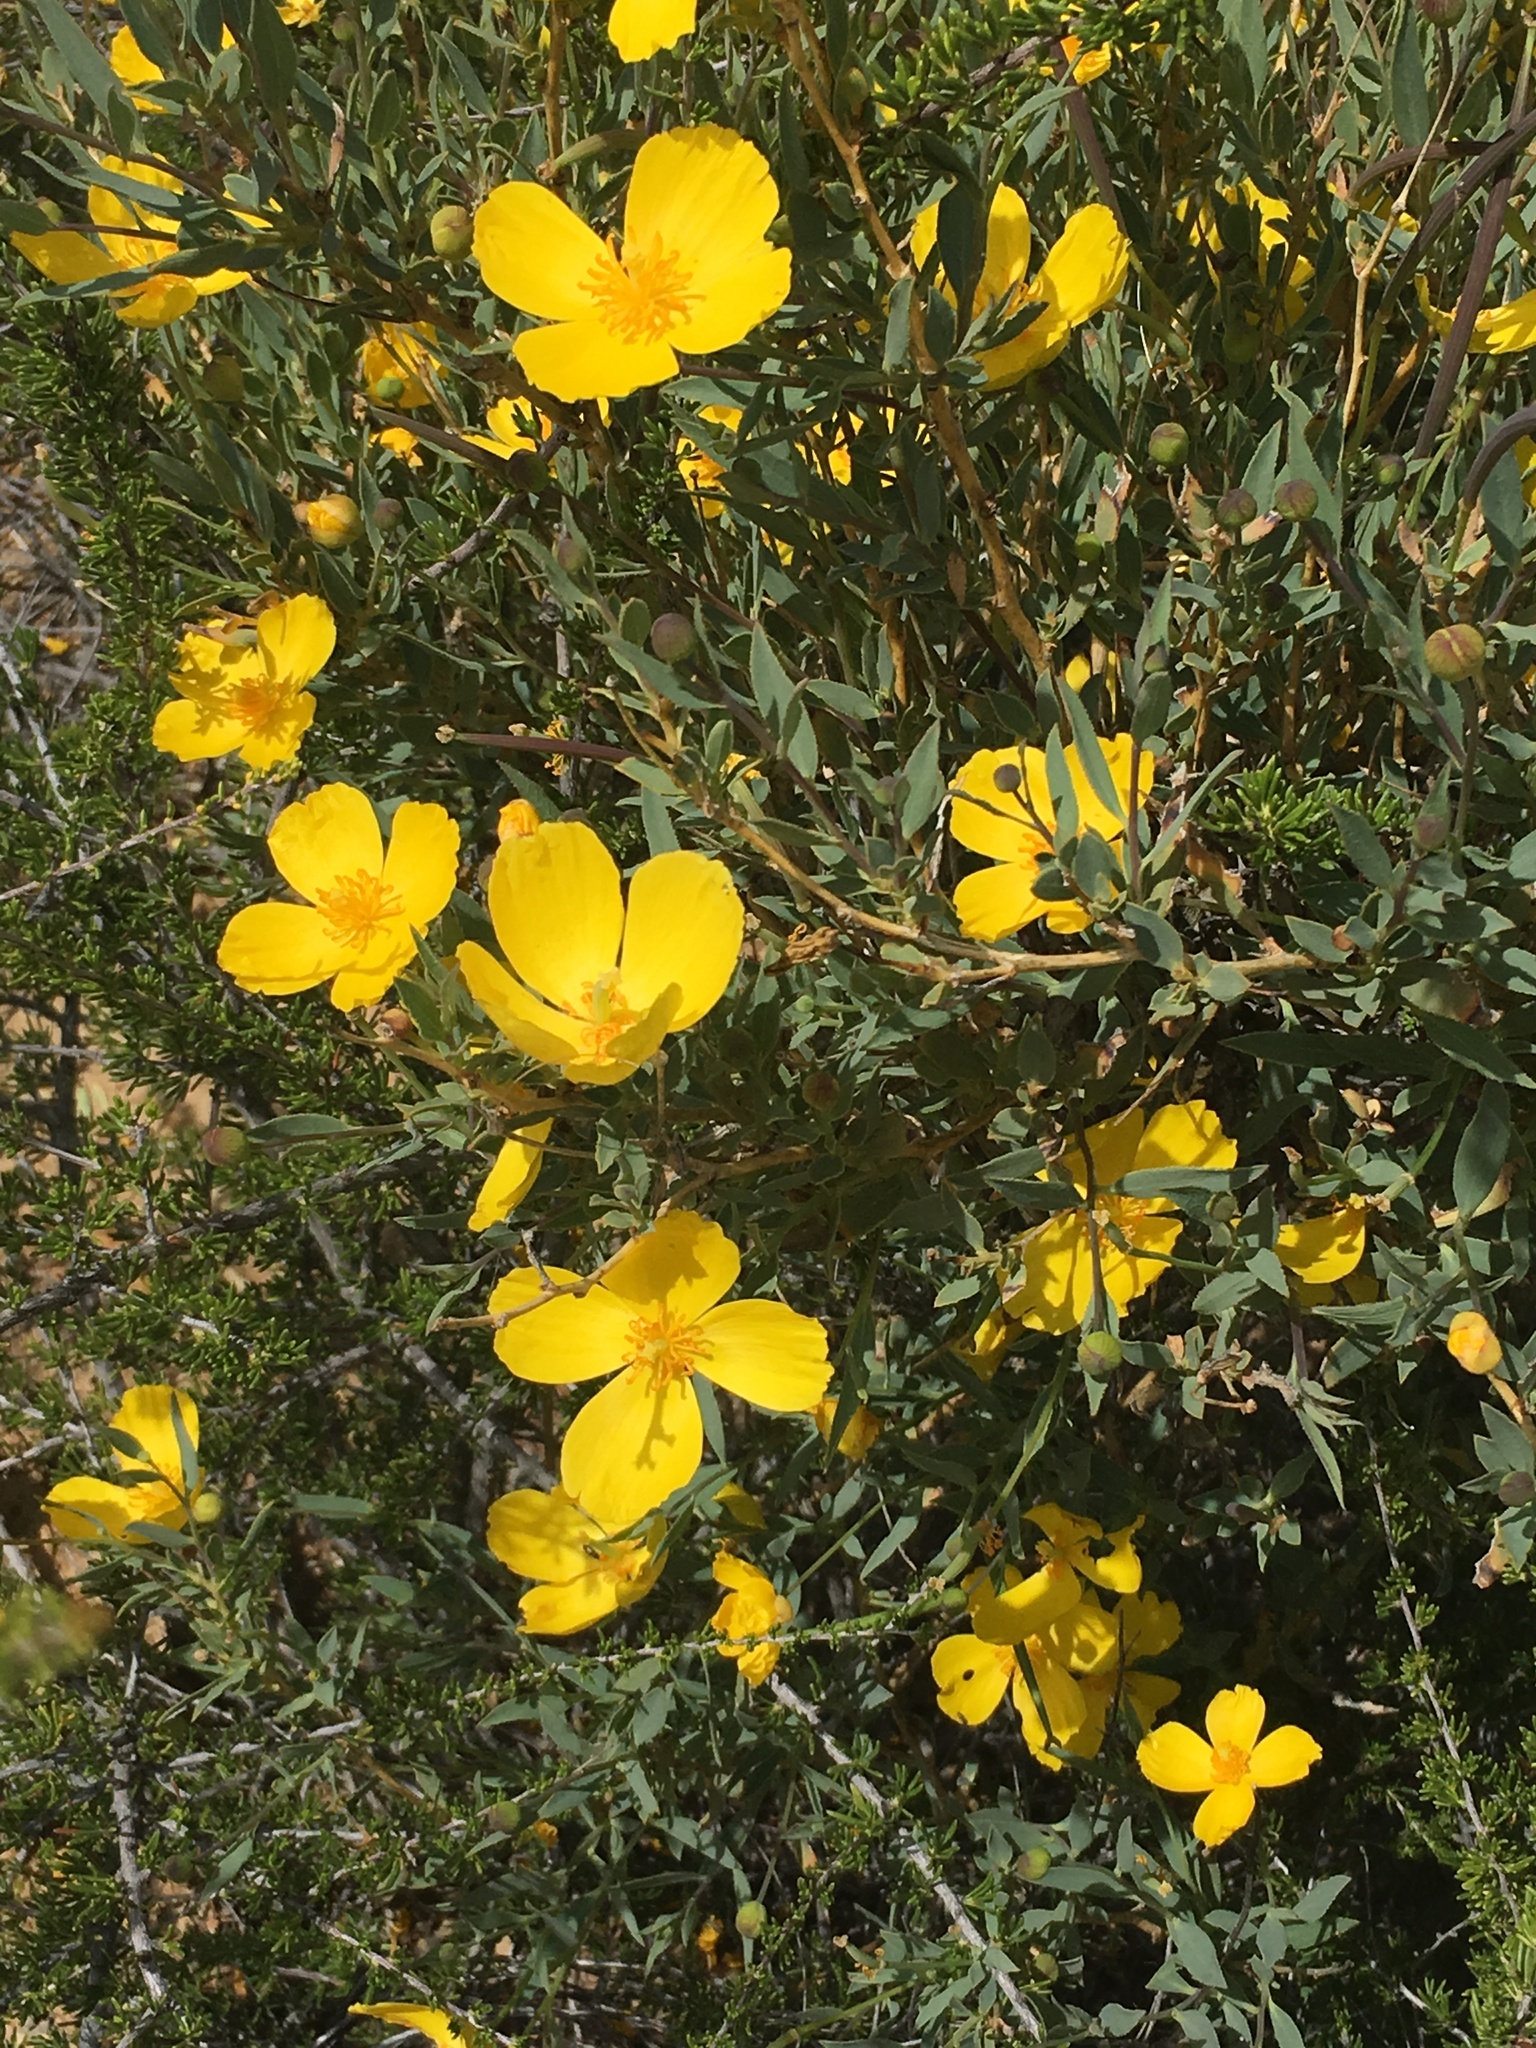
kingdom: Plantae
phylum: Tracheophyta
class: Magnoliopsida
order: Ranunculales
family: Papaveraceae
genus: Dendromecon
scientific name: Dendromecon rigida
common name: Tree poppy
